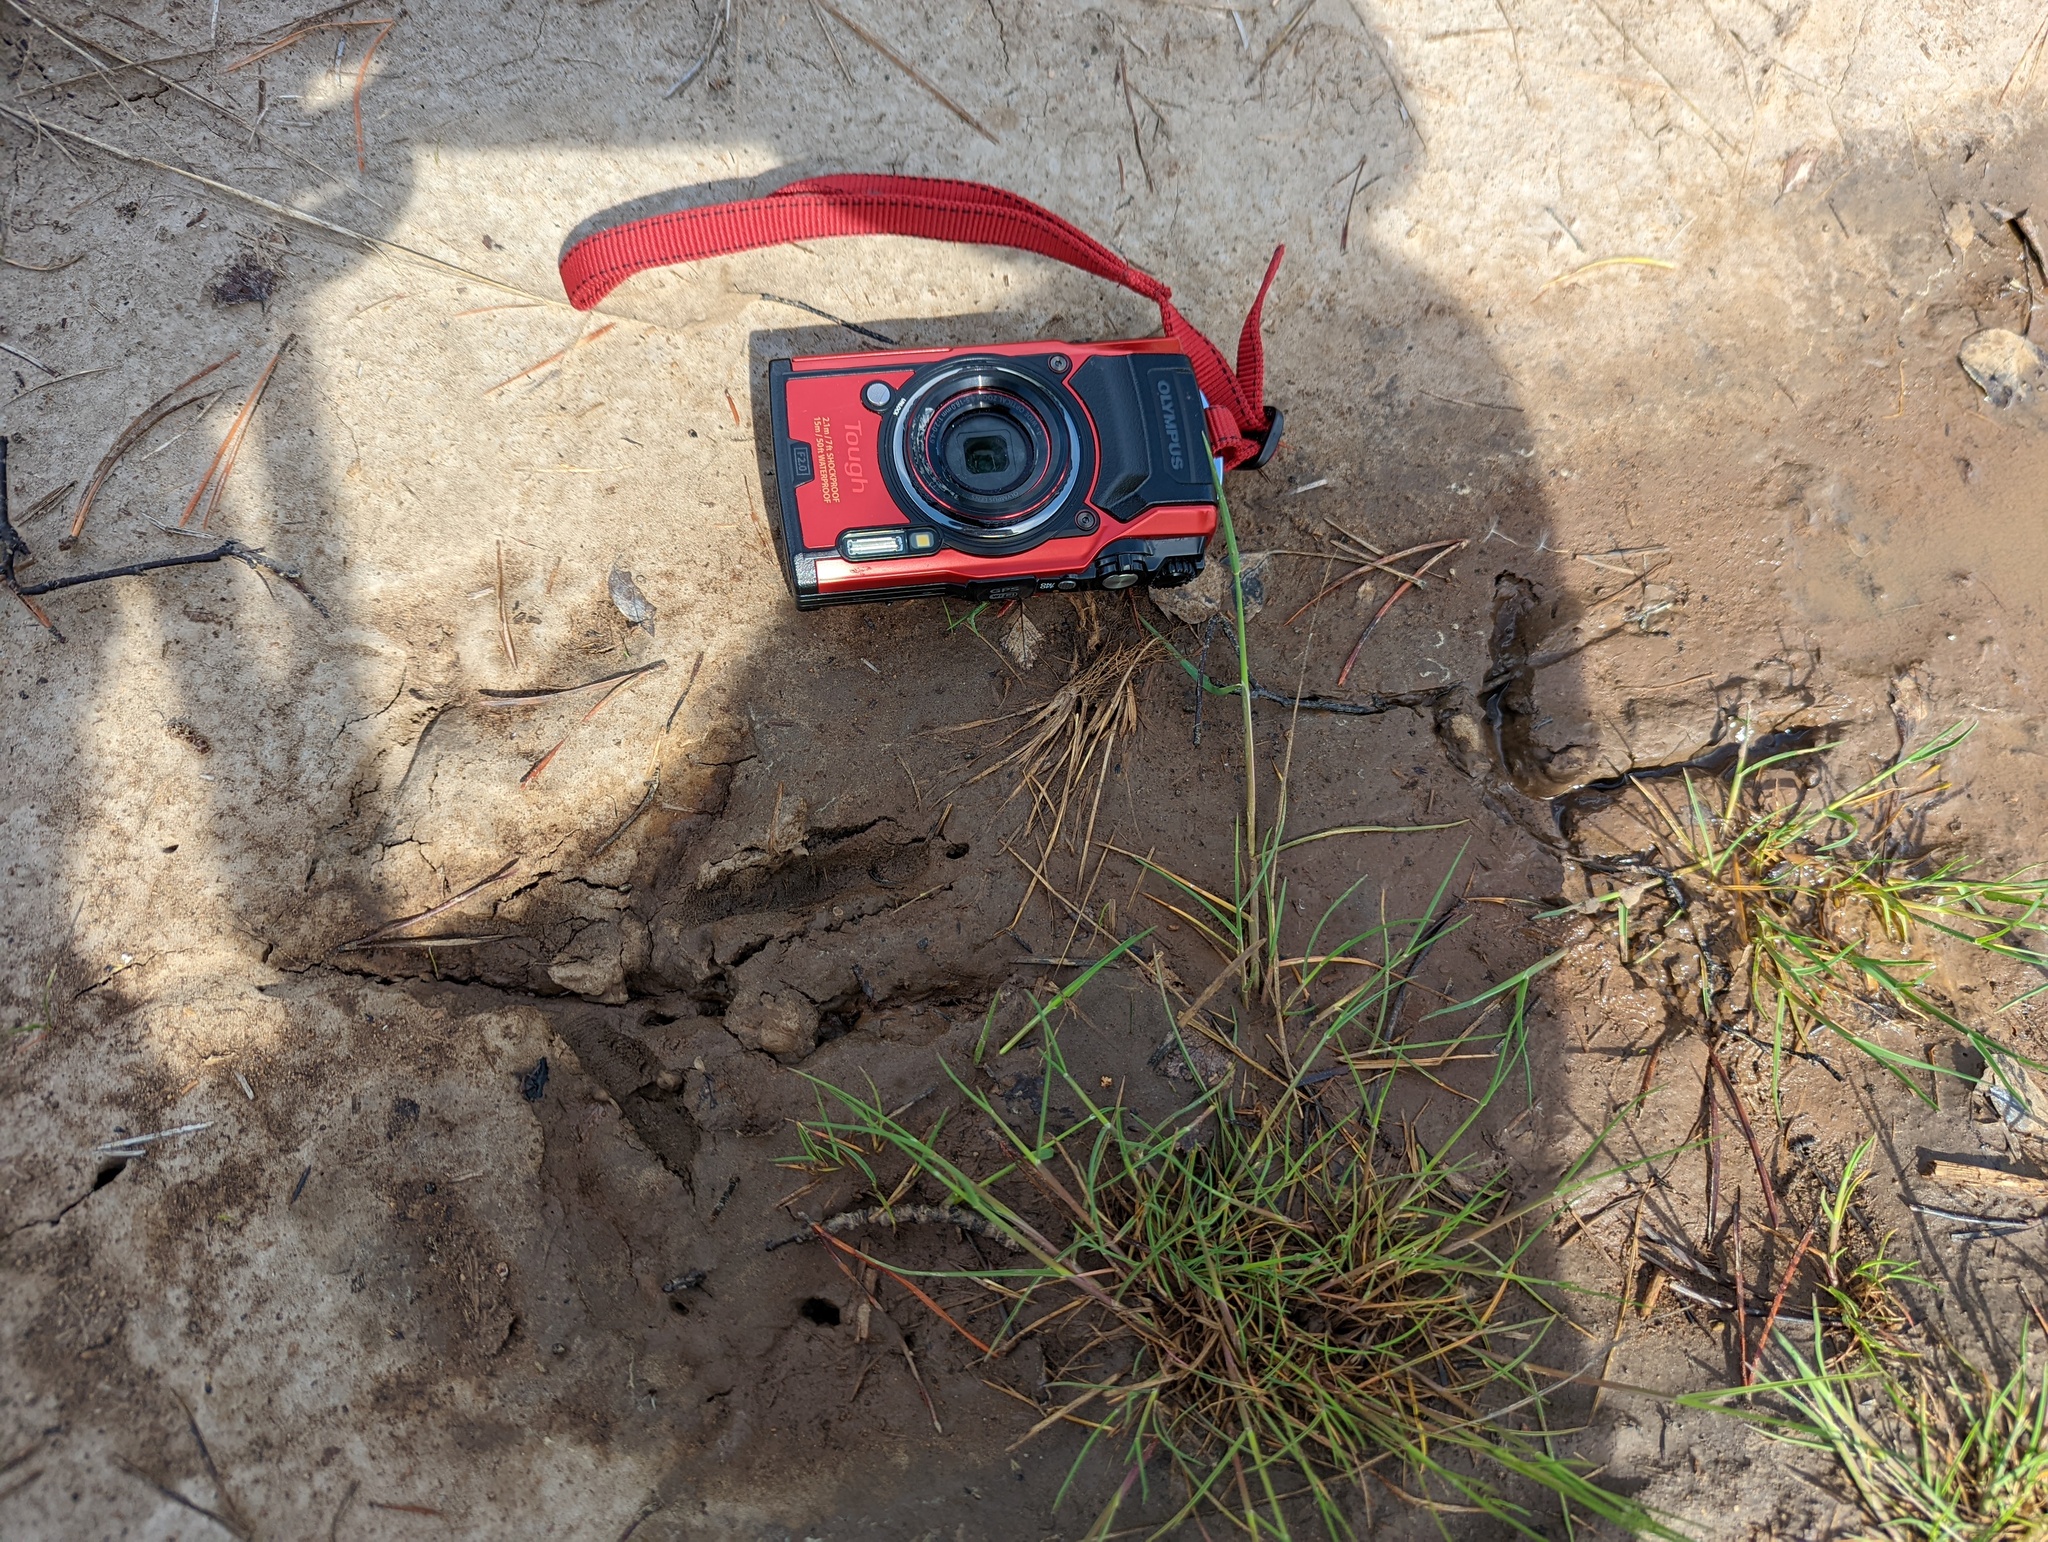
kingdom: Animalia
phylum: Chordata
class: Aves
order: Gruiformes
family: Gruidae
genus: Grus
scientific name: Grus canadensis
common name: Sandhill crane
